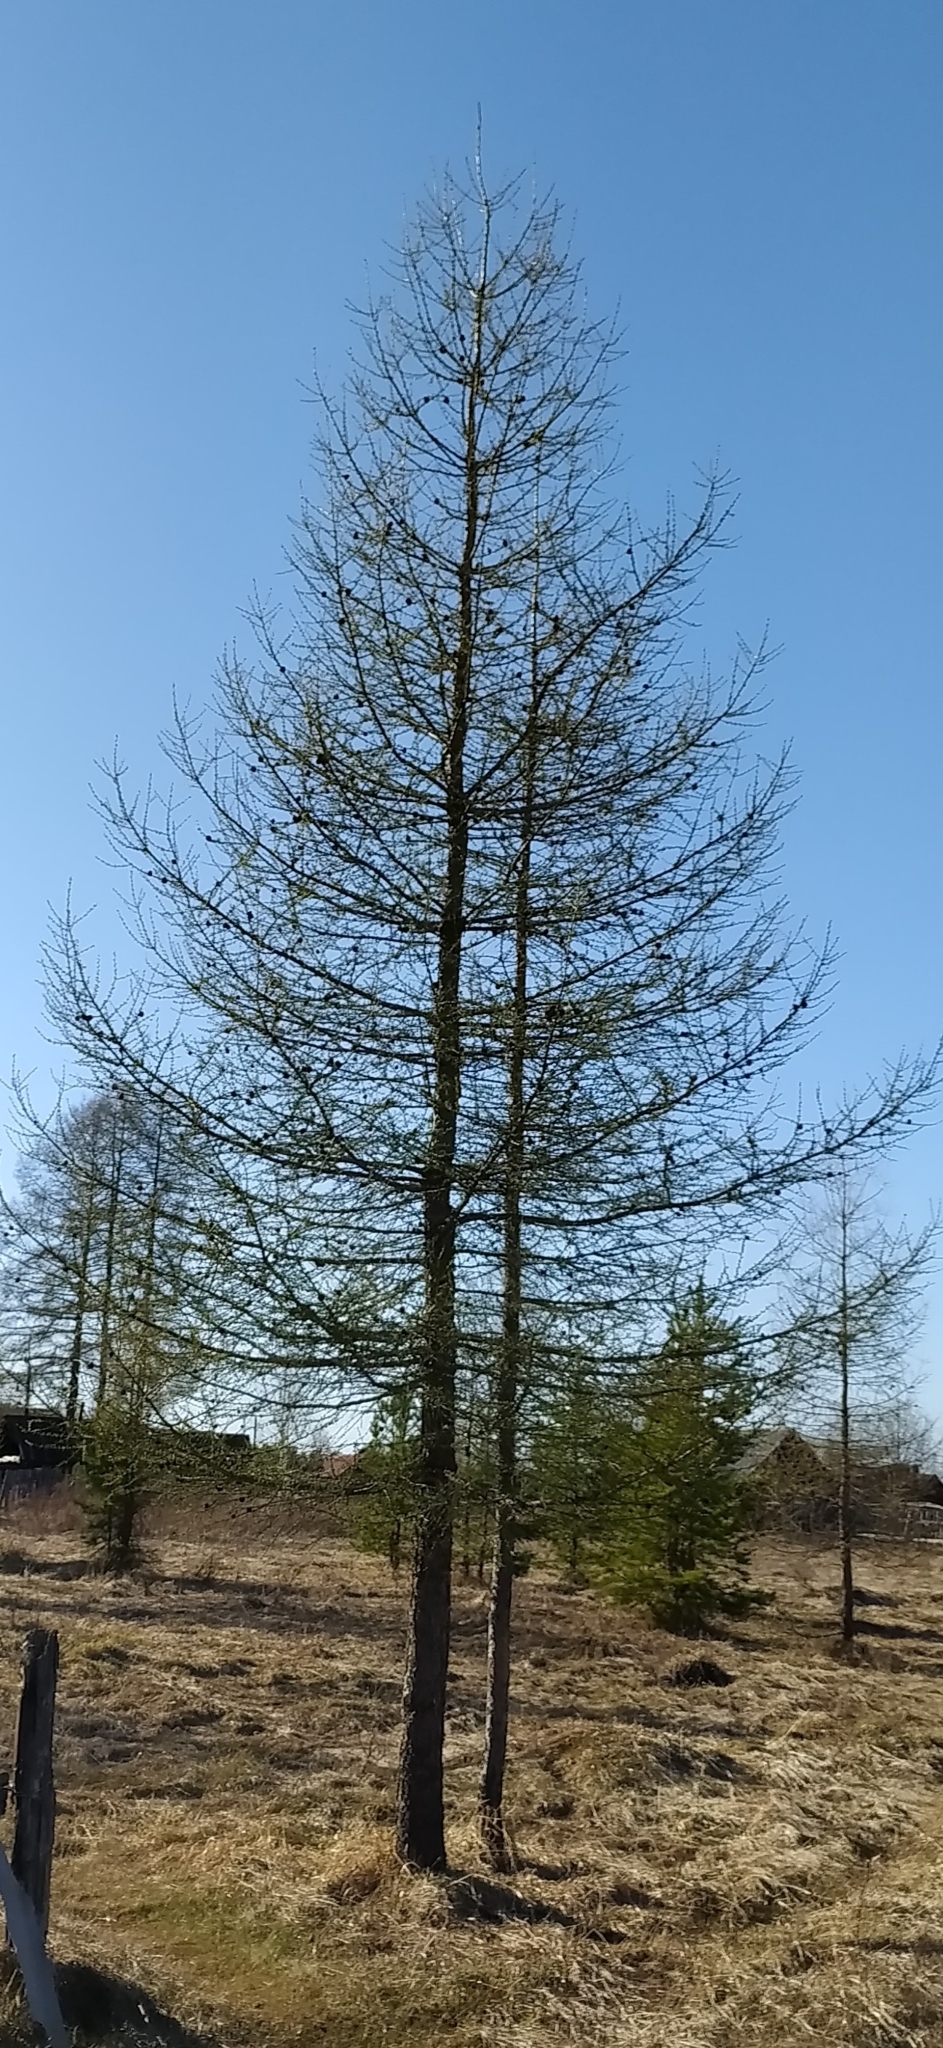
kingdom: Plantae
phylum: Tracheophyta
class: Pinopsida
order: Pinales
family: Pinaceae
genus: Larix
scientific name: Larix sibirica
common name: Siberian larch
